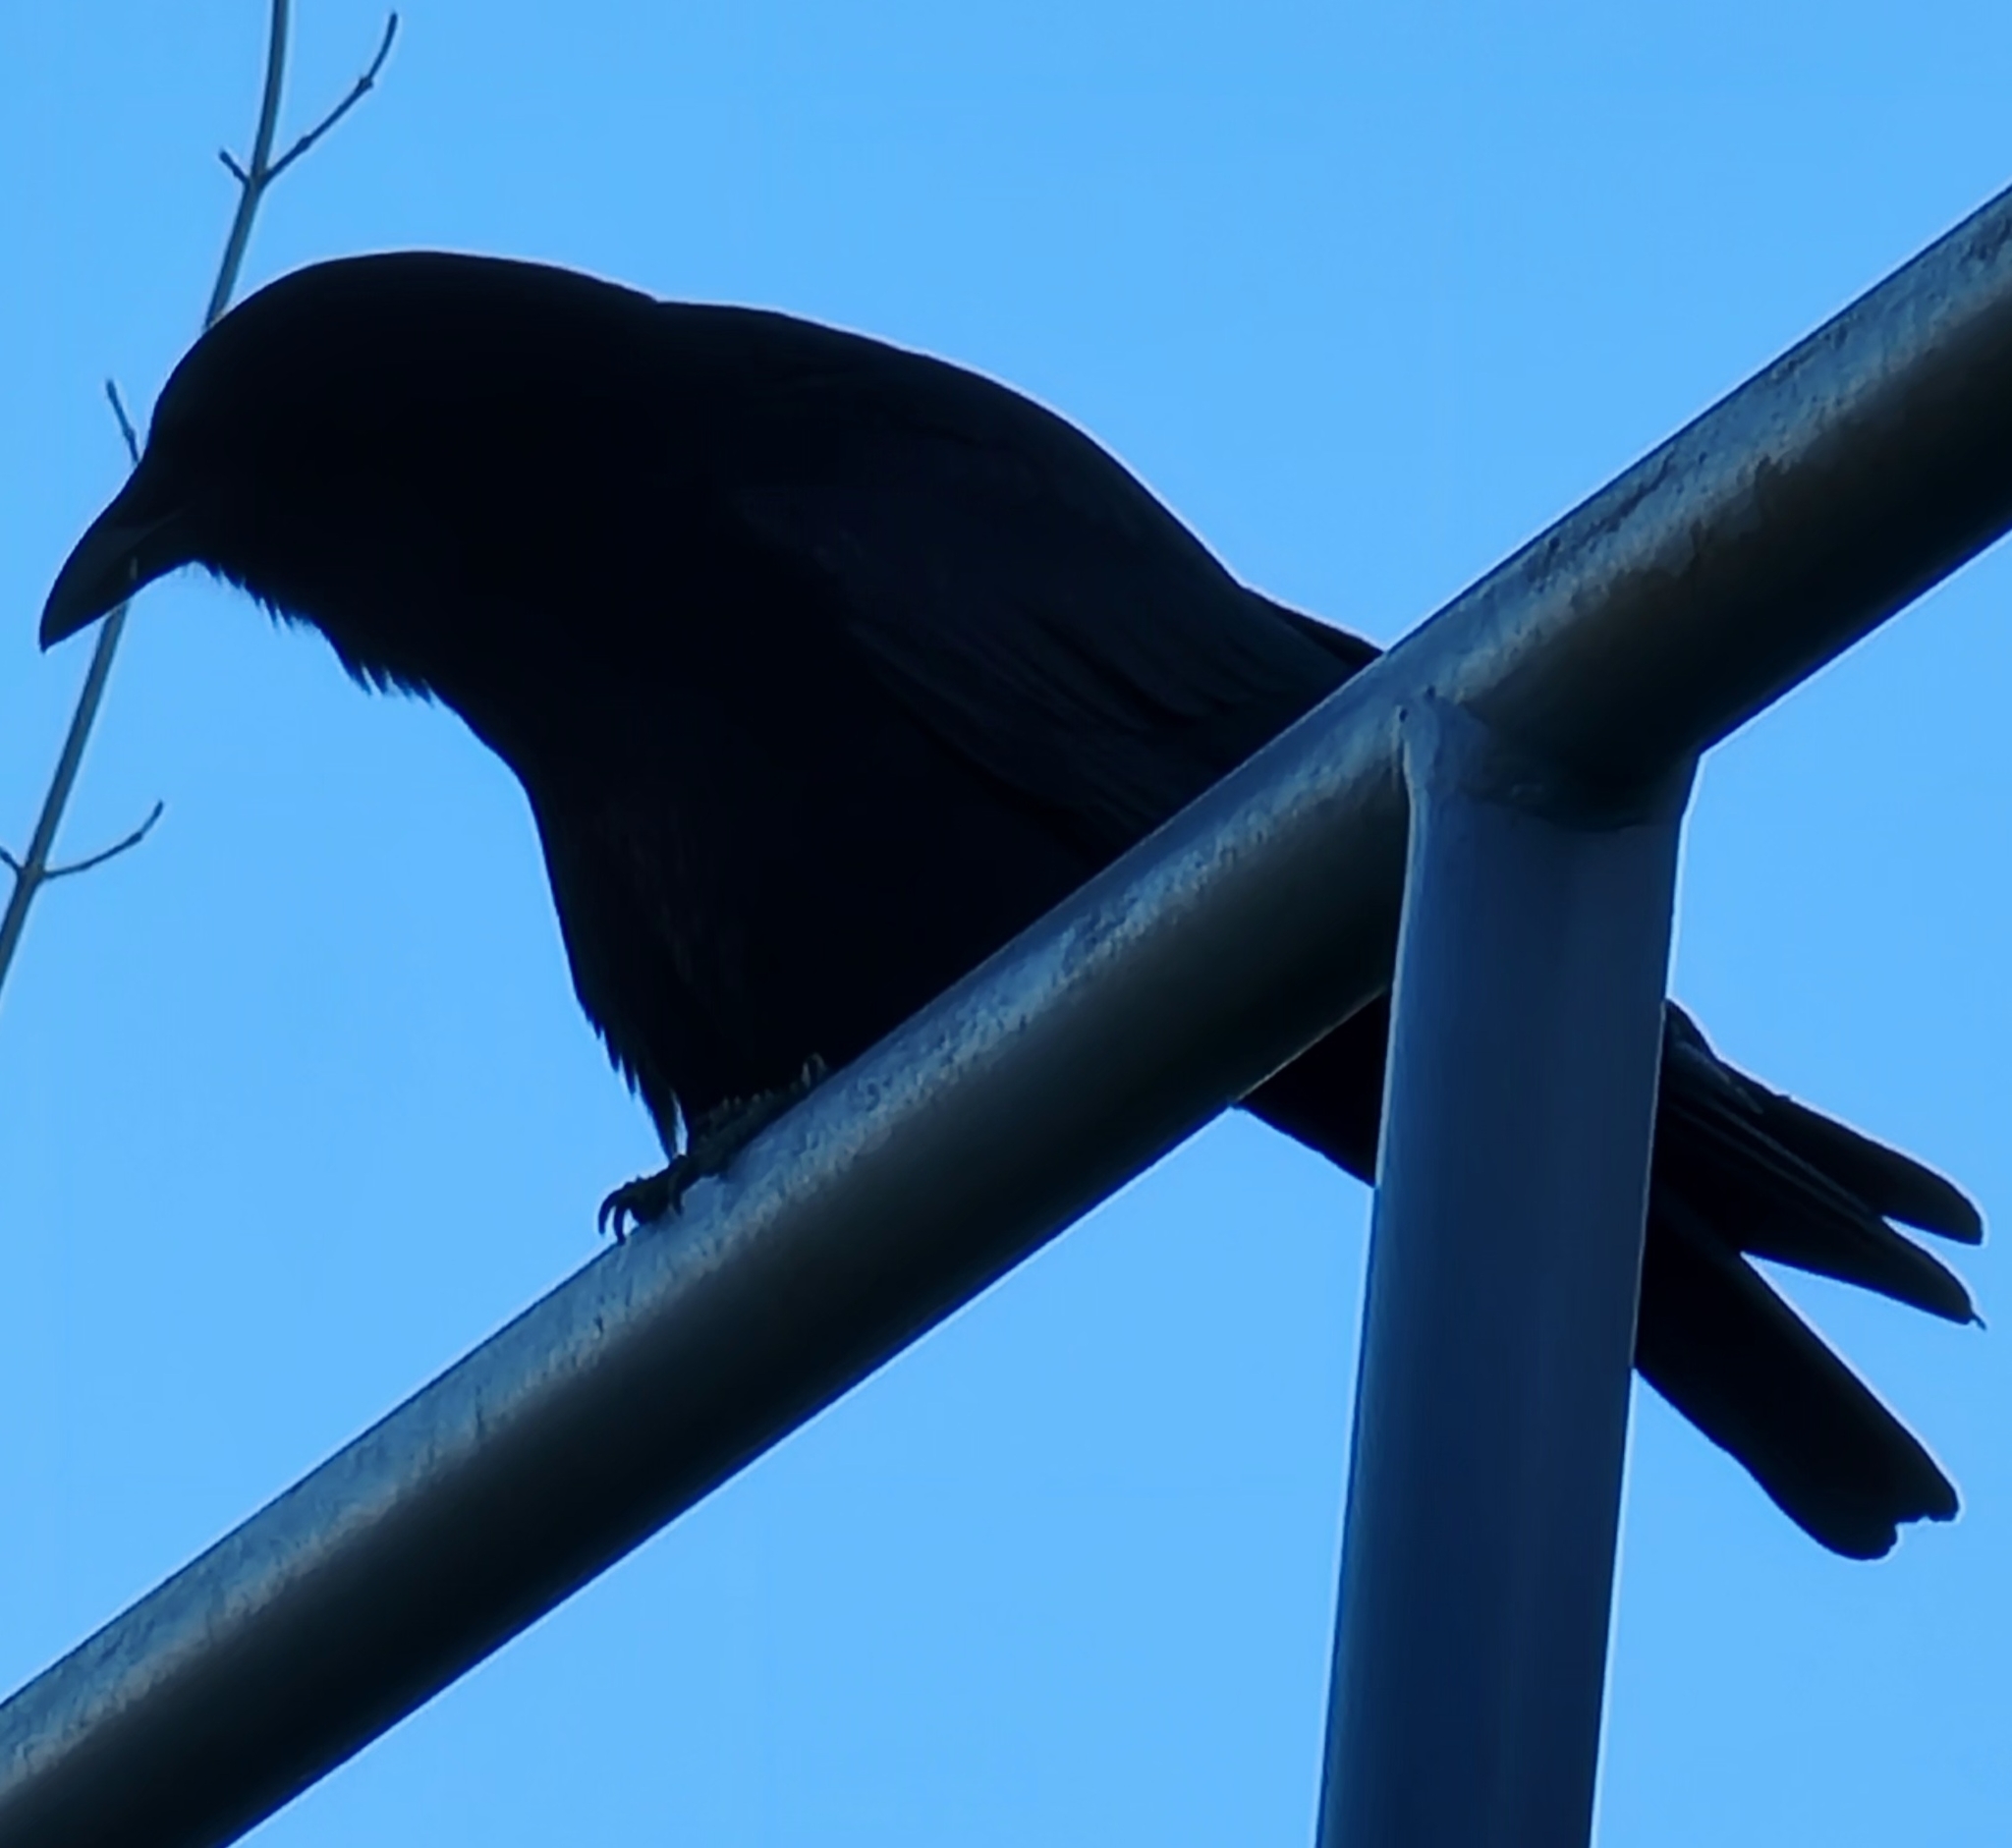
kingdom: Animalia
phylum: Chordata
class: Aves
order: Passeriformes
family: Corvidae
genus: Corvus
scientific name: Corvus brachyrhynchos
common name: American crow
